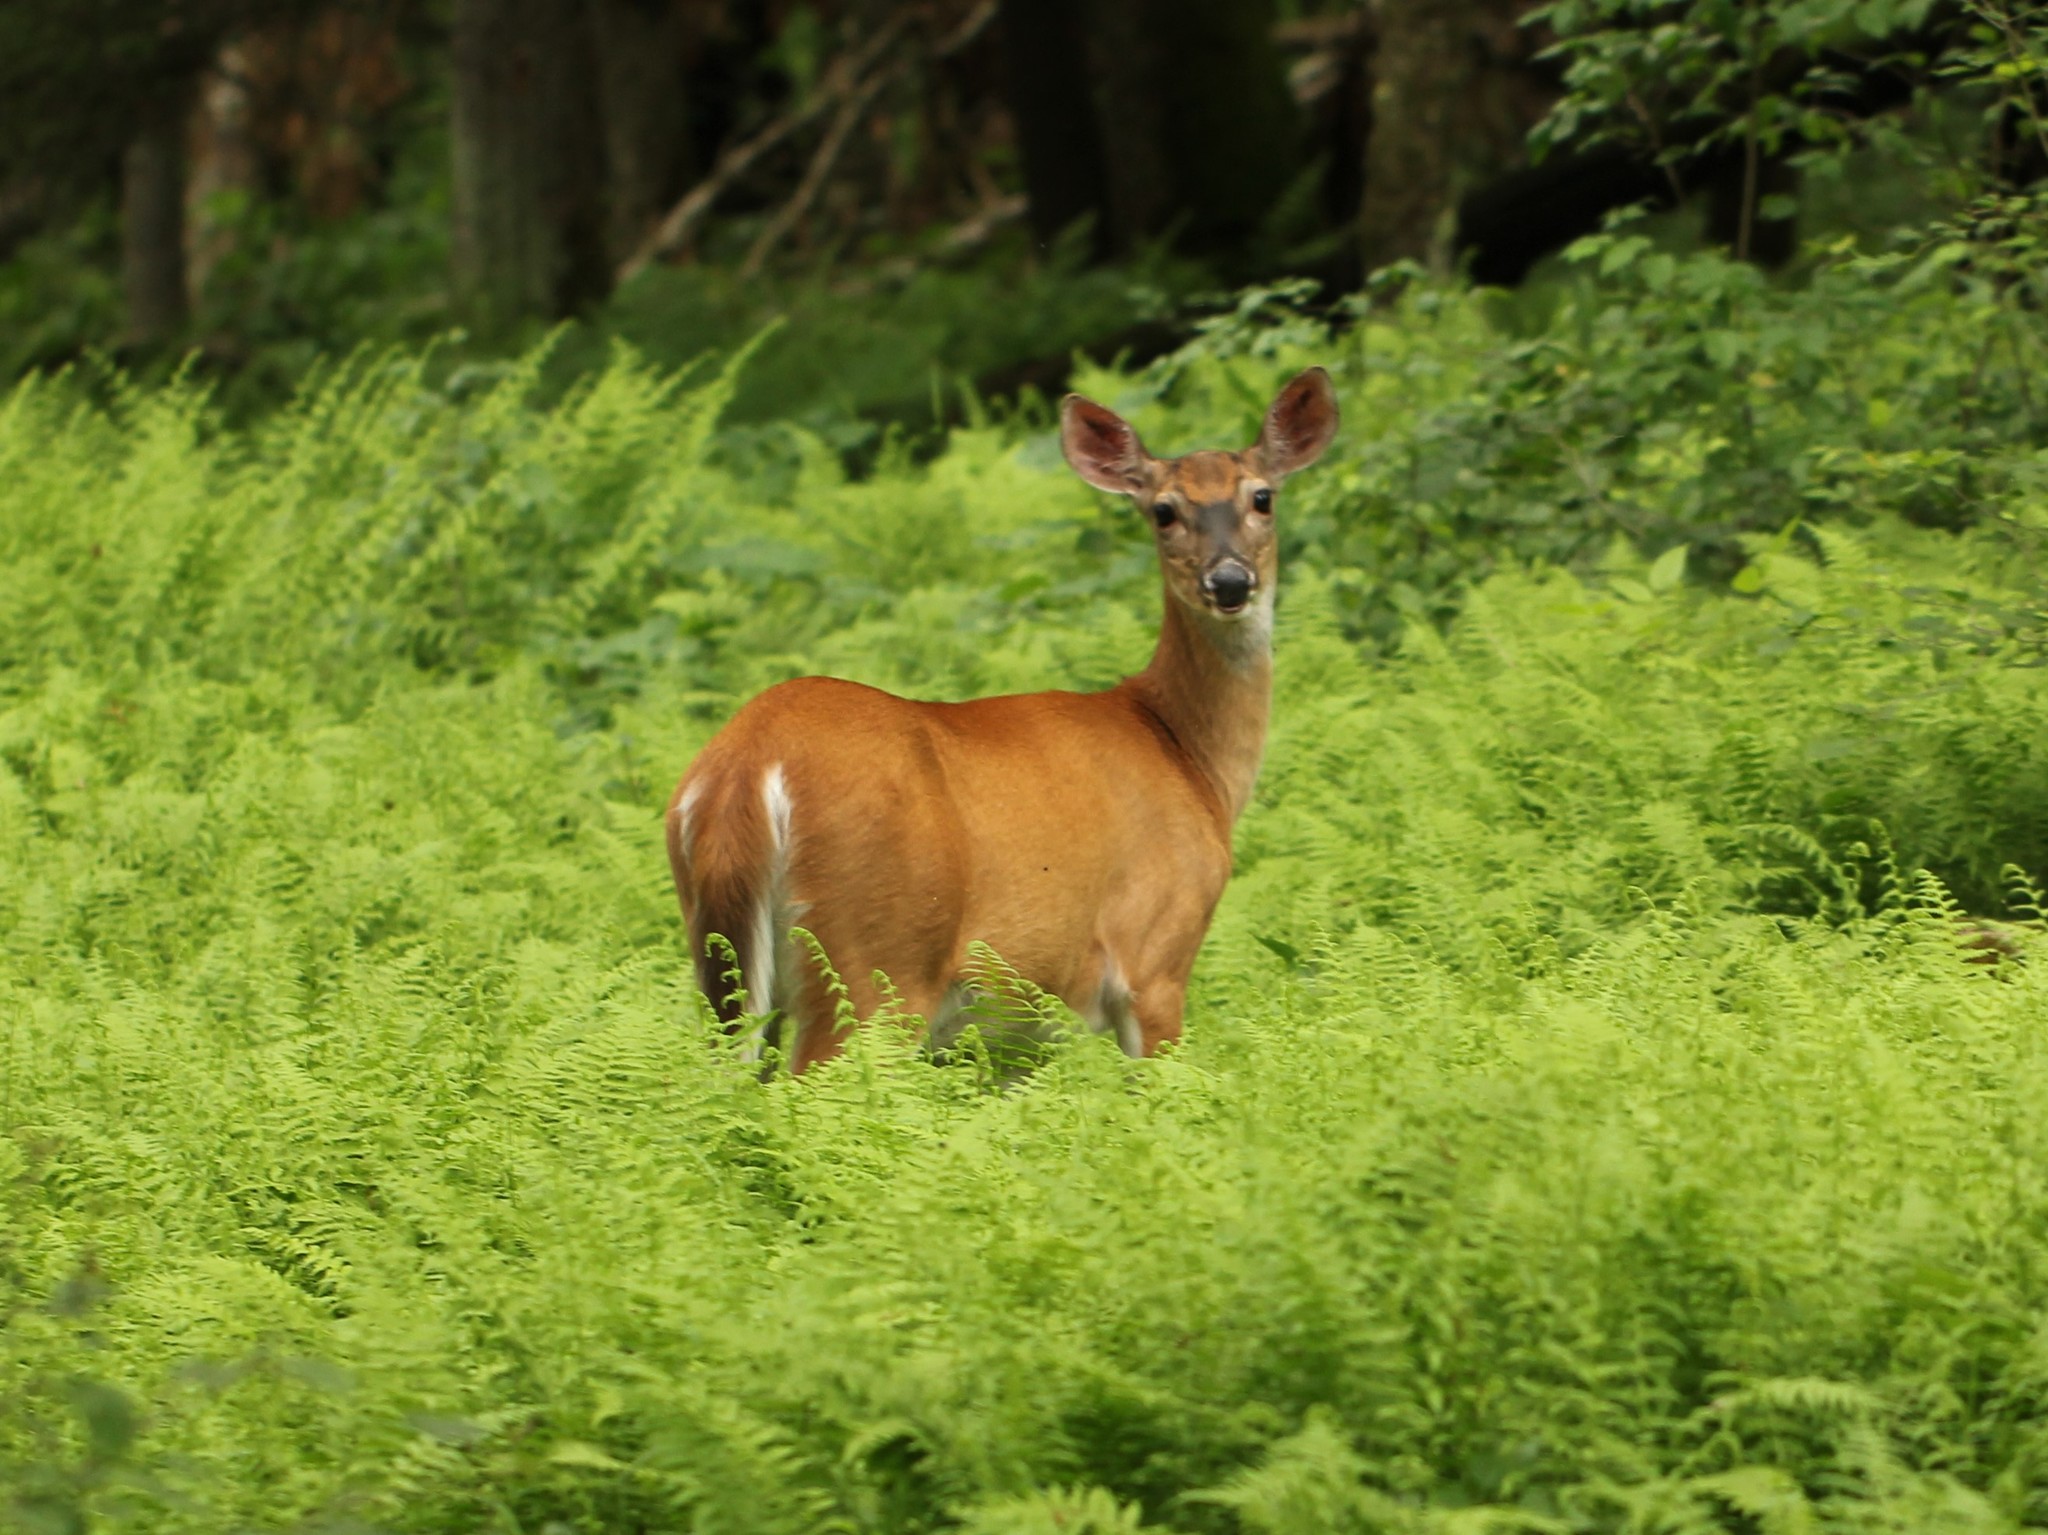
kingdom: Animalia
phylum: Chordata
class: Mammalia
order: Artiodactyla
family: Cervidae
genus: Odocoileus
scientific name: Odocoileus virginianus
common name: White-tailed deer
